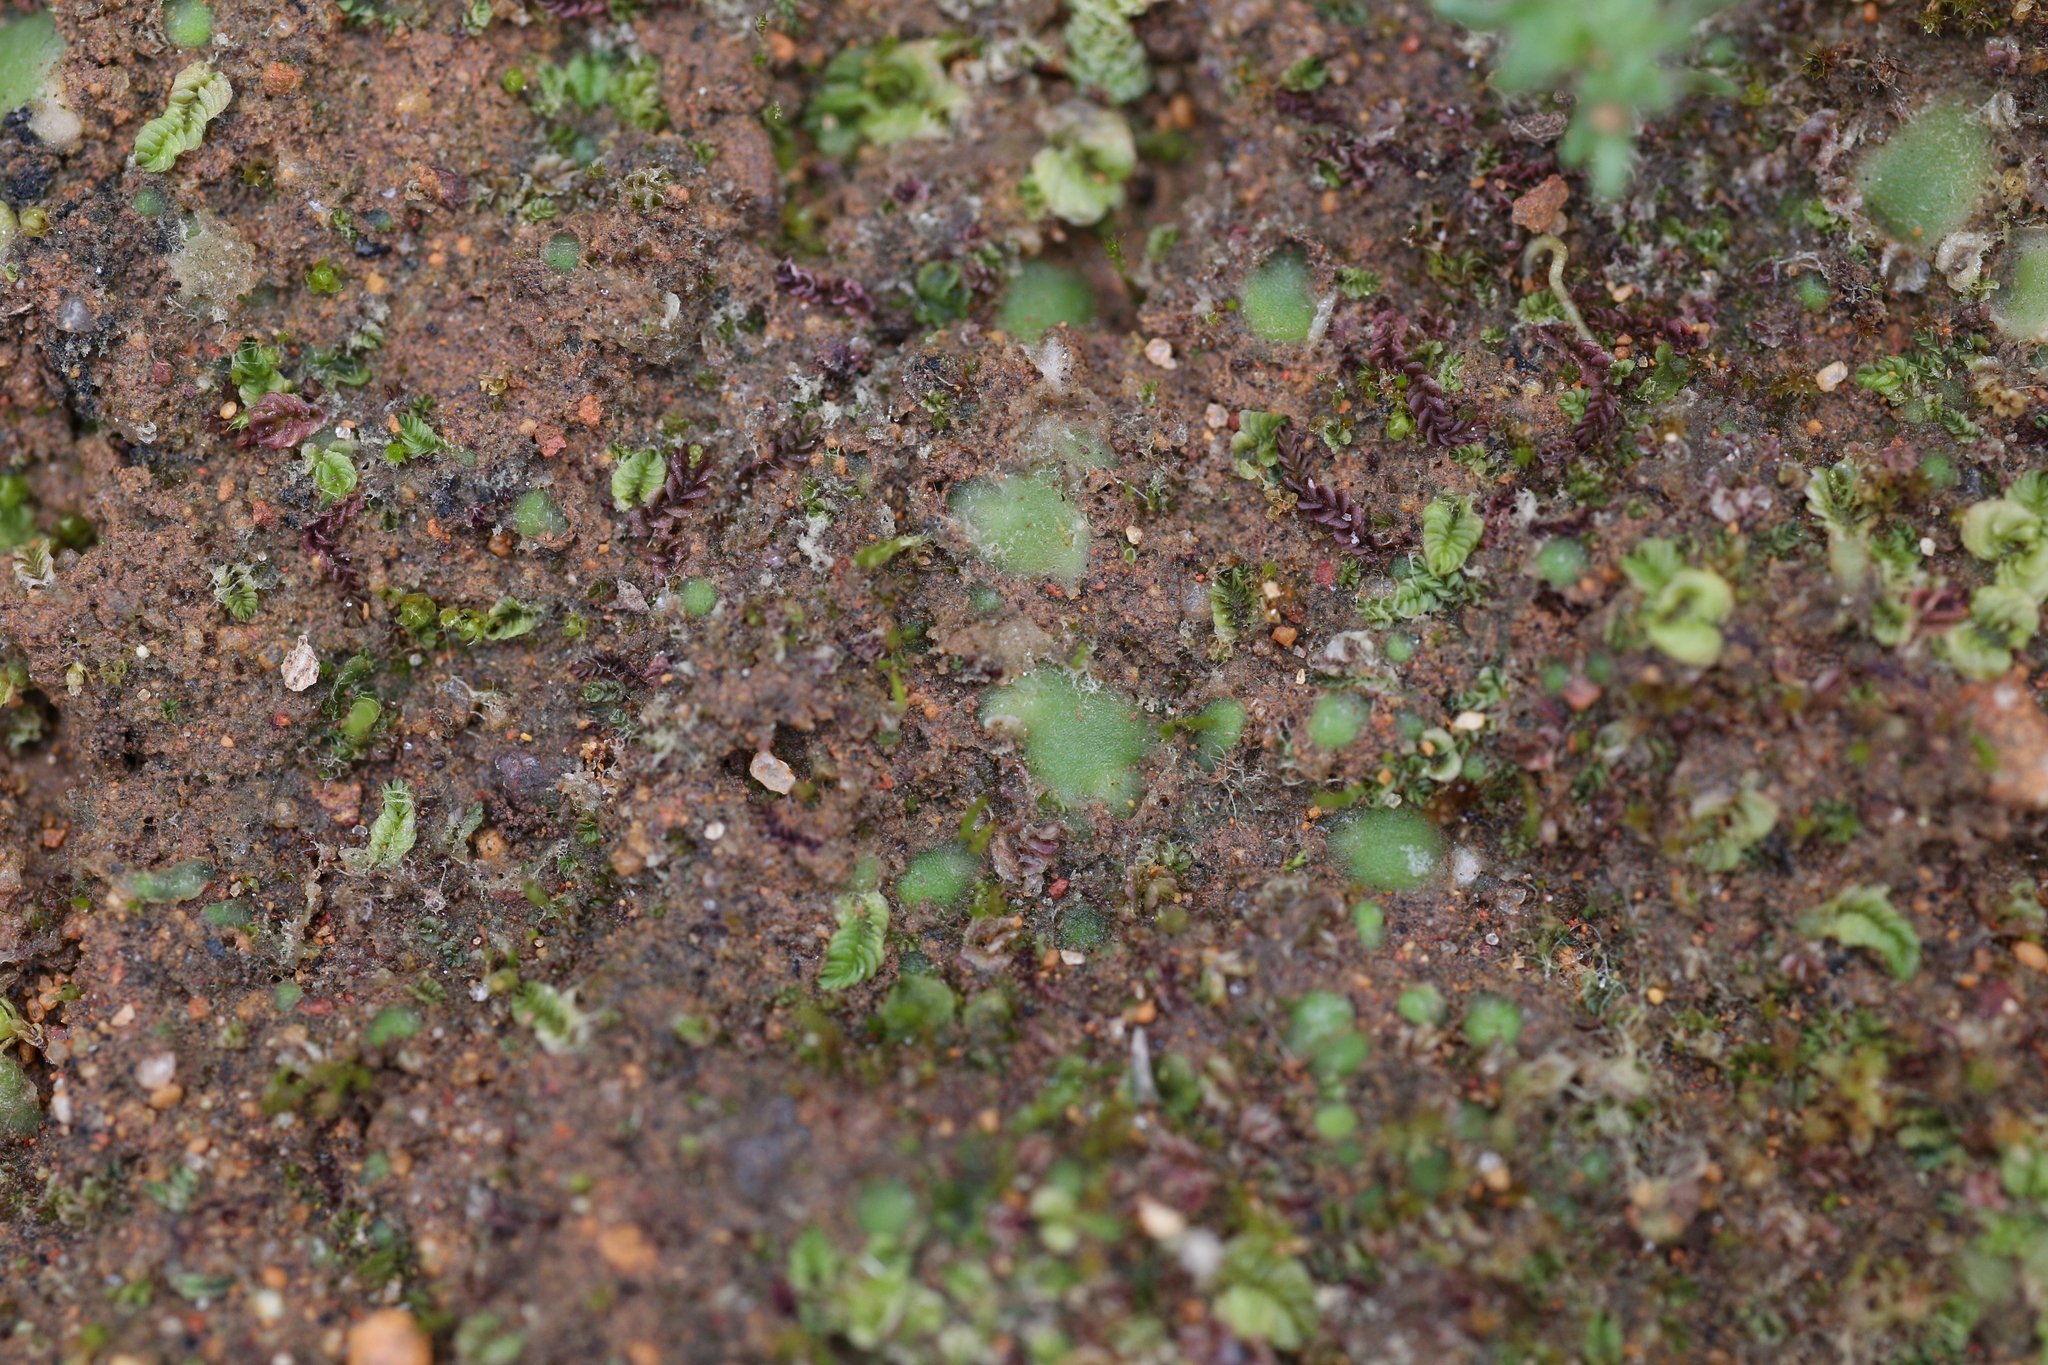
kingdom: Plantae
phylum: Marchantiophyta
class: Jungermanniopsida
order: Jungermanniales
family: Acrobolbaceae
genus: Enigmella
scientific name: Enigmella thallina
